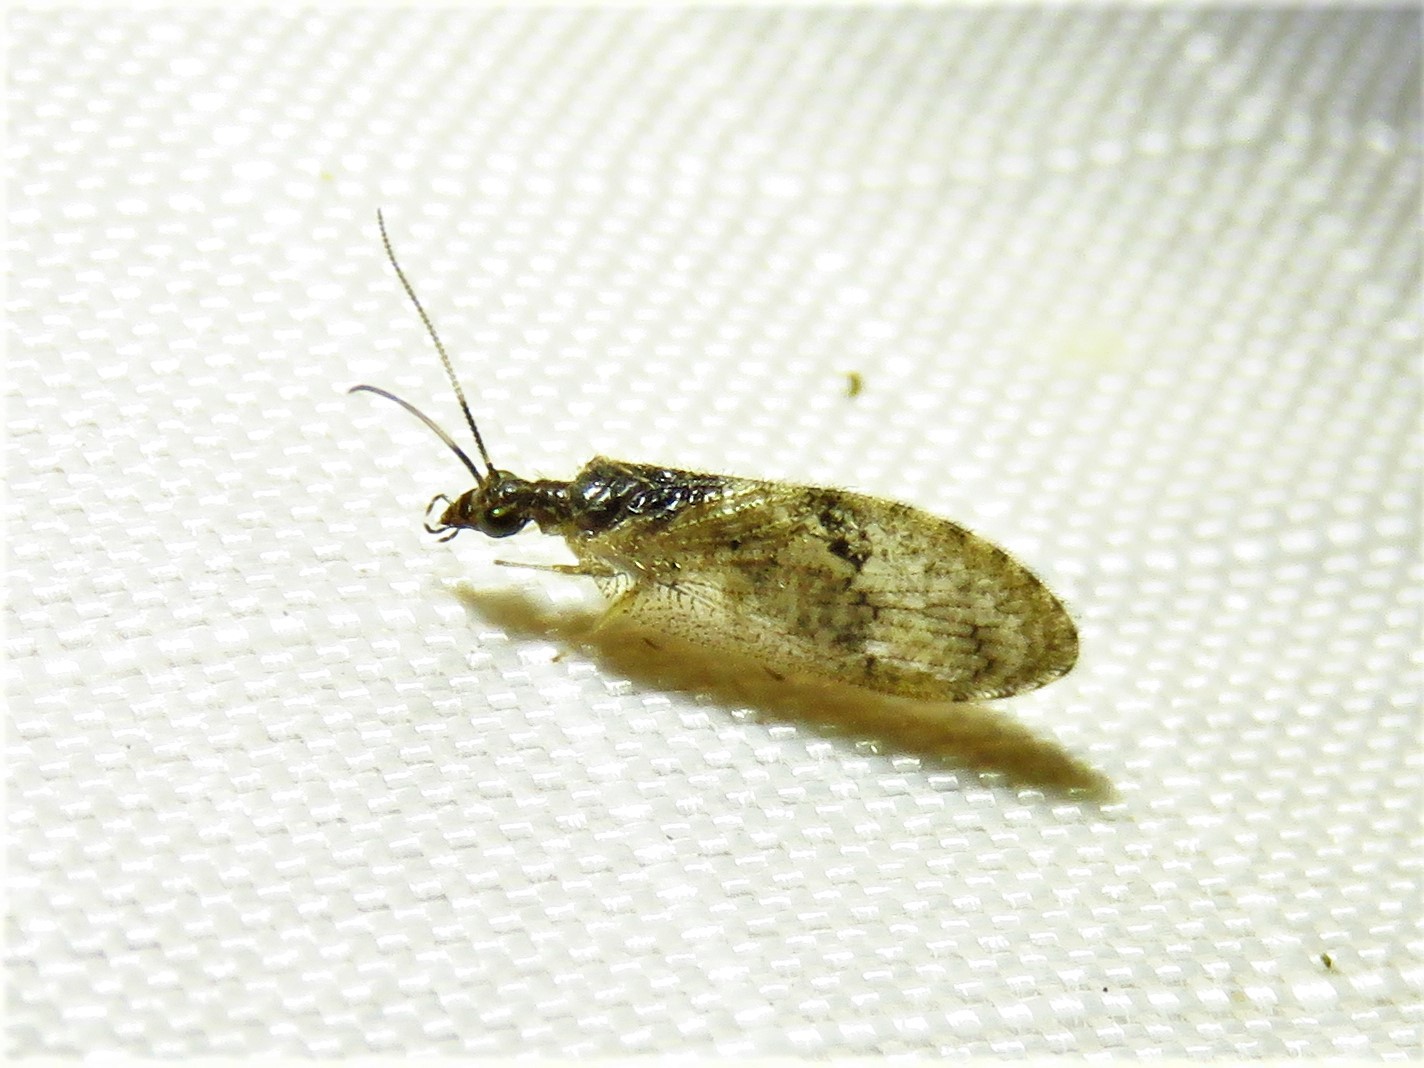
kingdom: Animalia
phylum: Arthropoda
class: Insecta
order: Neuroptera
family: Hemerobiidae
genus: Sympherobius
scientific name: Sympherobius barberi
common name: Brown lacewing
